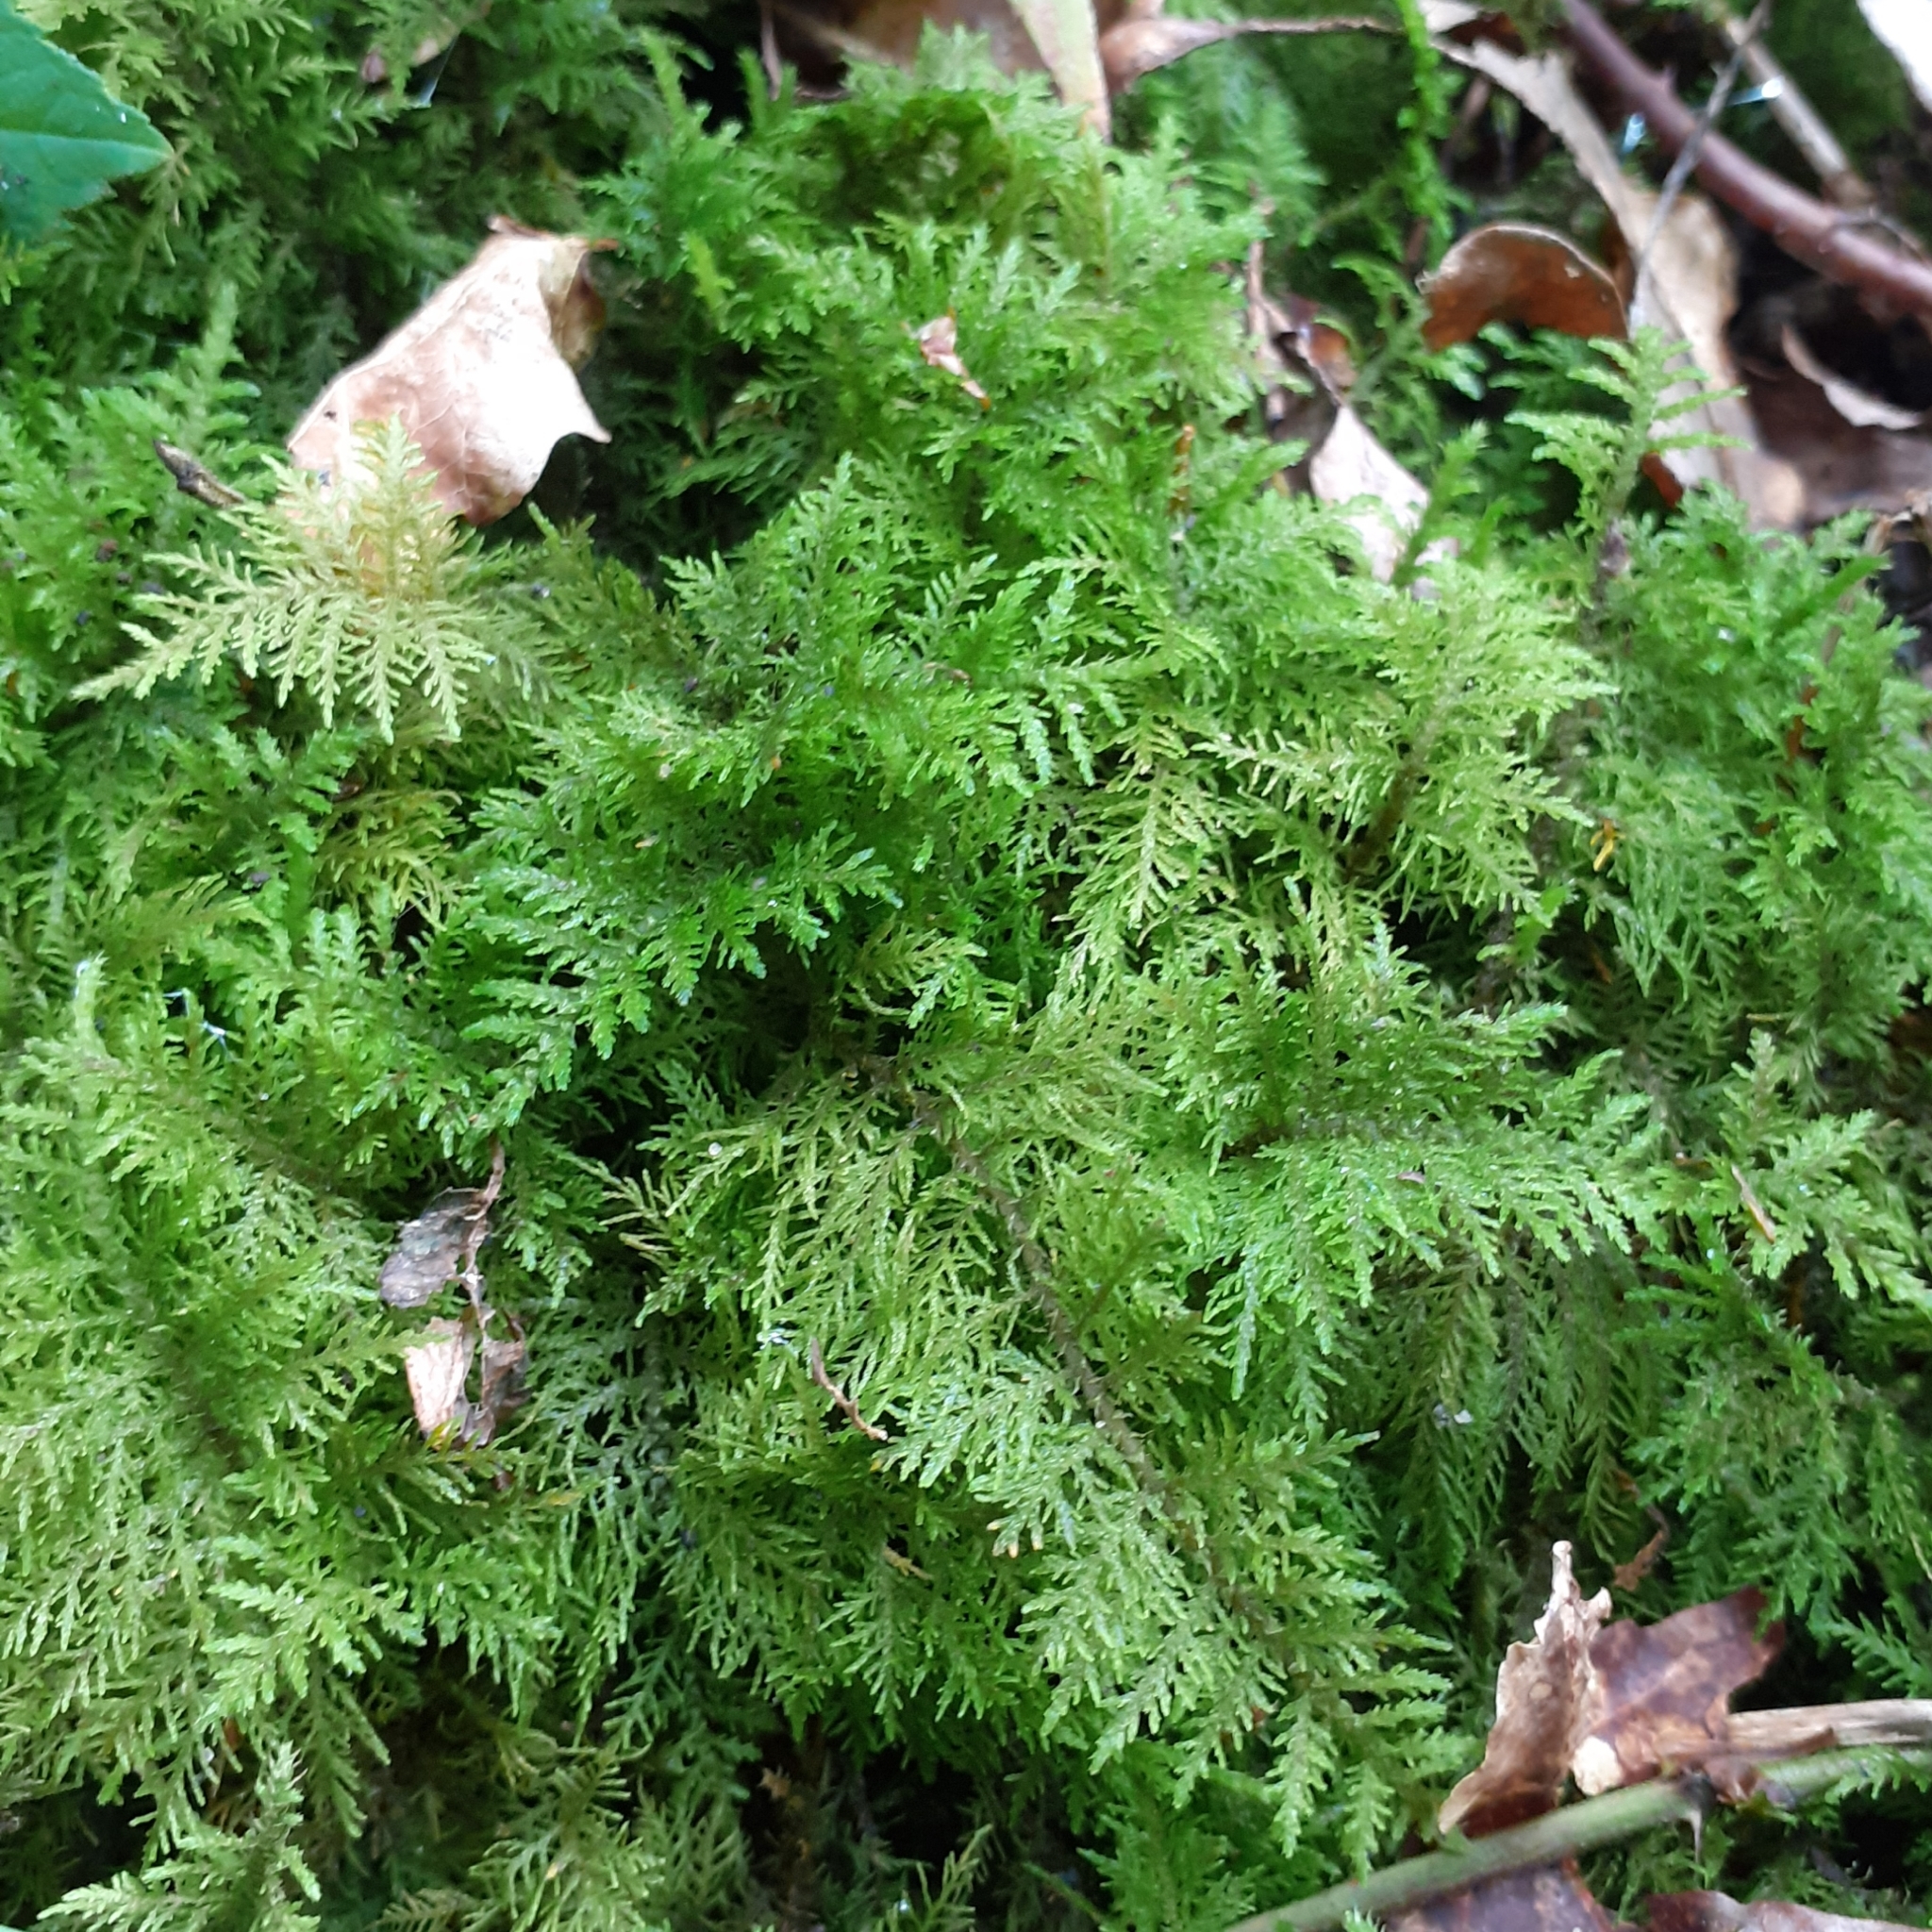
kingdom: Plantae
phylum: Bryophyta
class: Bryopsida
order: Hypnales
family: Thuidiaceae
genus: Thuidium
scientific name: Thuidium tamariscinum
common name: Common tamarisk-moss
